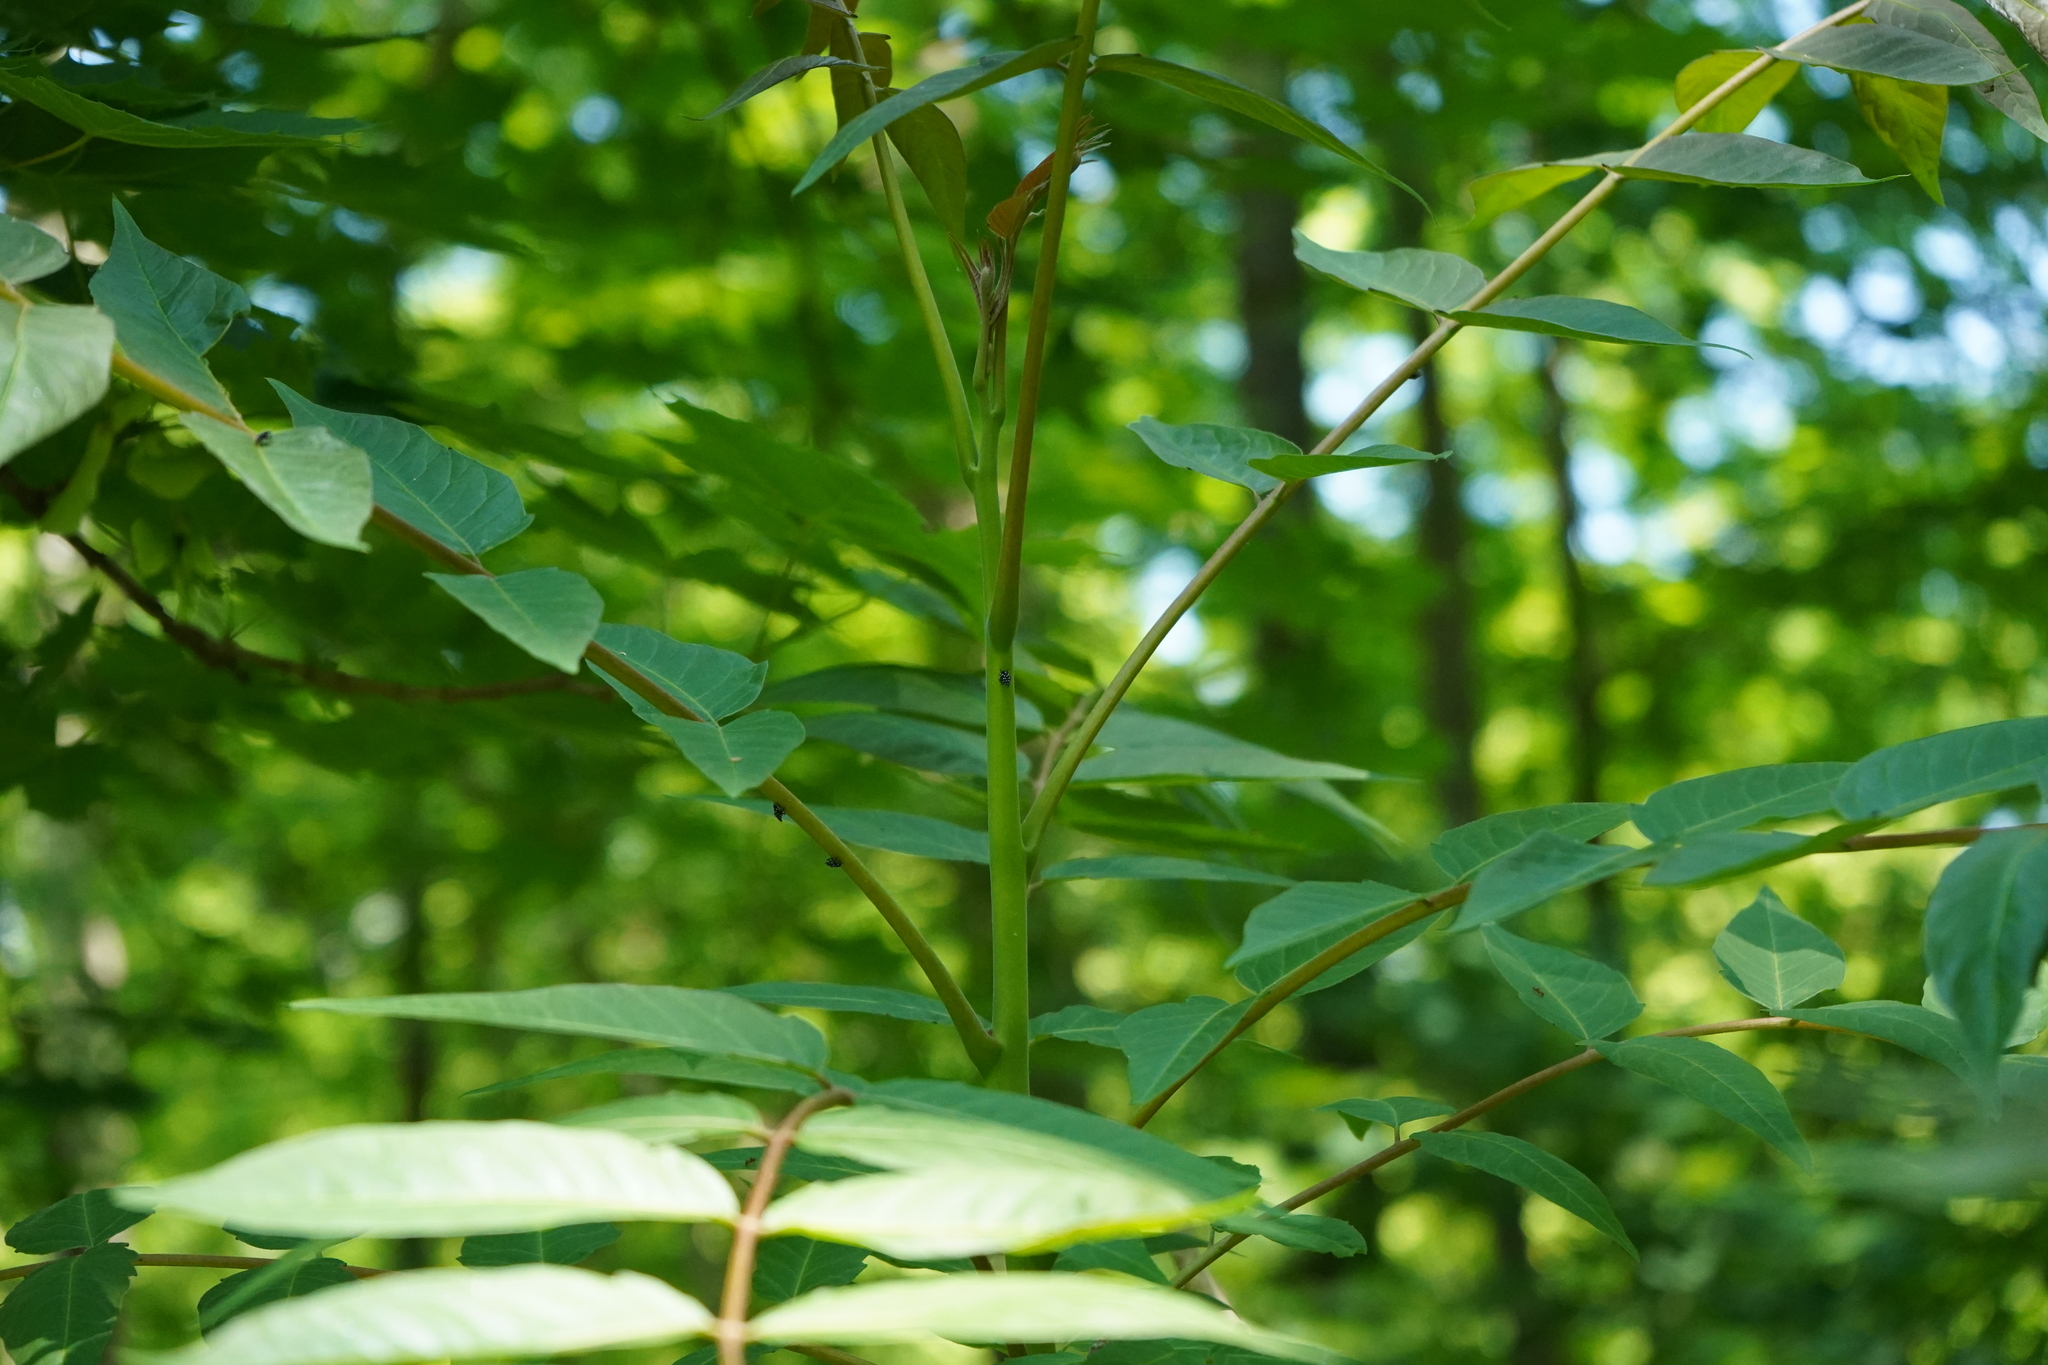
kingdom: Animalia
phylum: Arthropoda
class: Insecta
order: Hemiptera
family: Fulgoridae
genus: Lycorma
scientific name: Lycorma delicatula
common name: Spotted lanternfly
